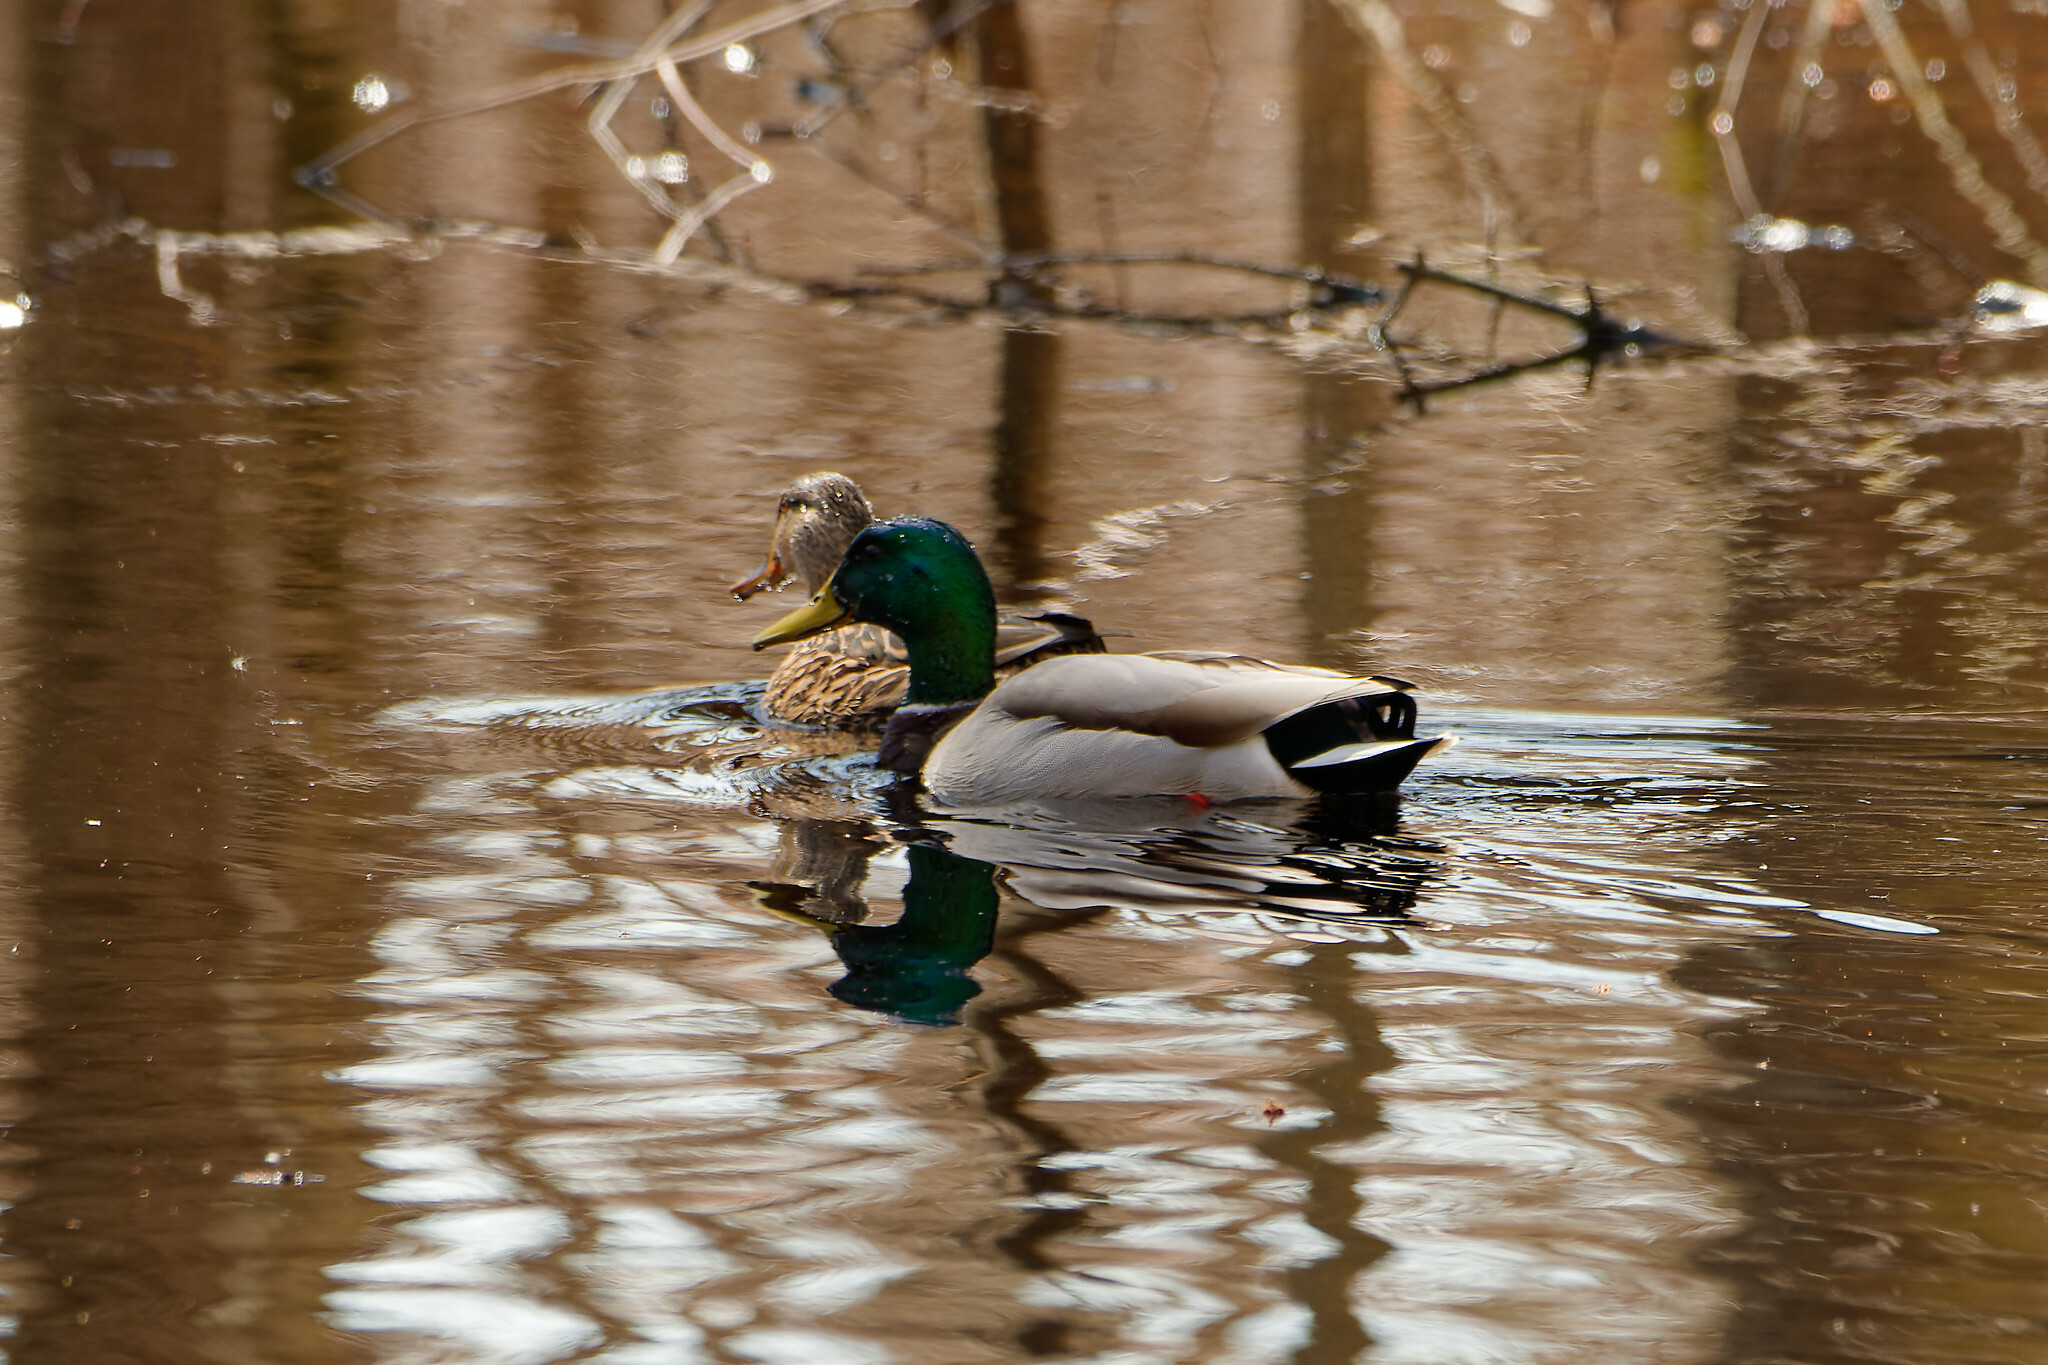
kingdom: Animalia
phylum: Chordata
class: Aves
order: Anseriformes
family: Anatidae
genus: Anas
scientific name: Anas platyrhynchos
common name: Mallard
